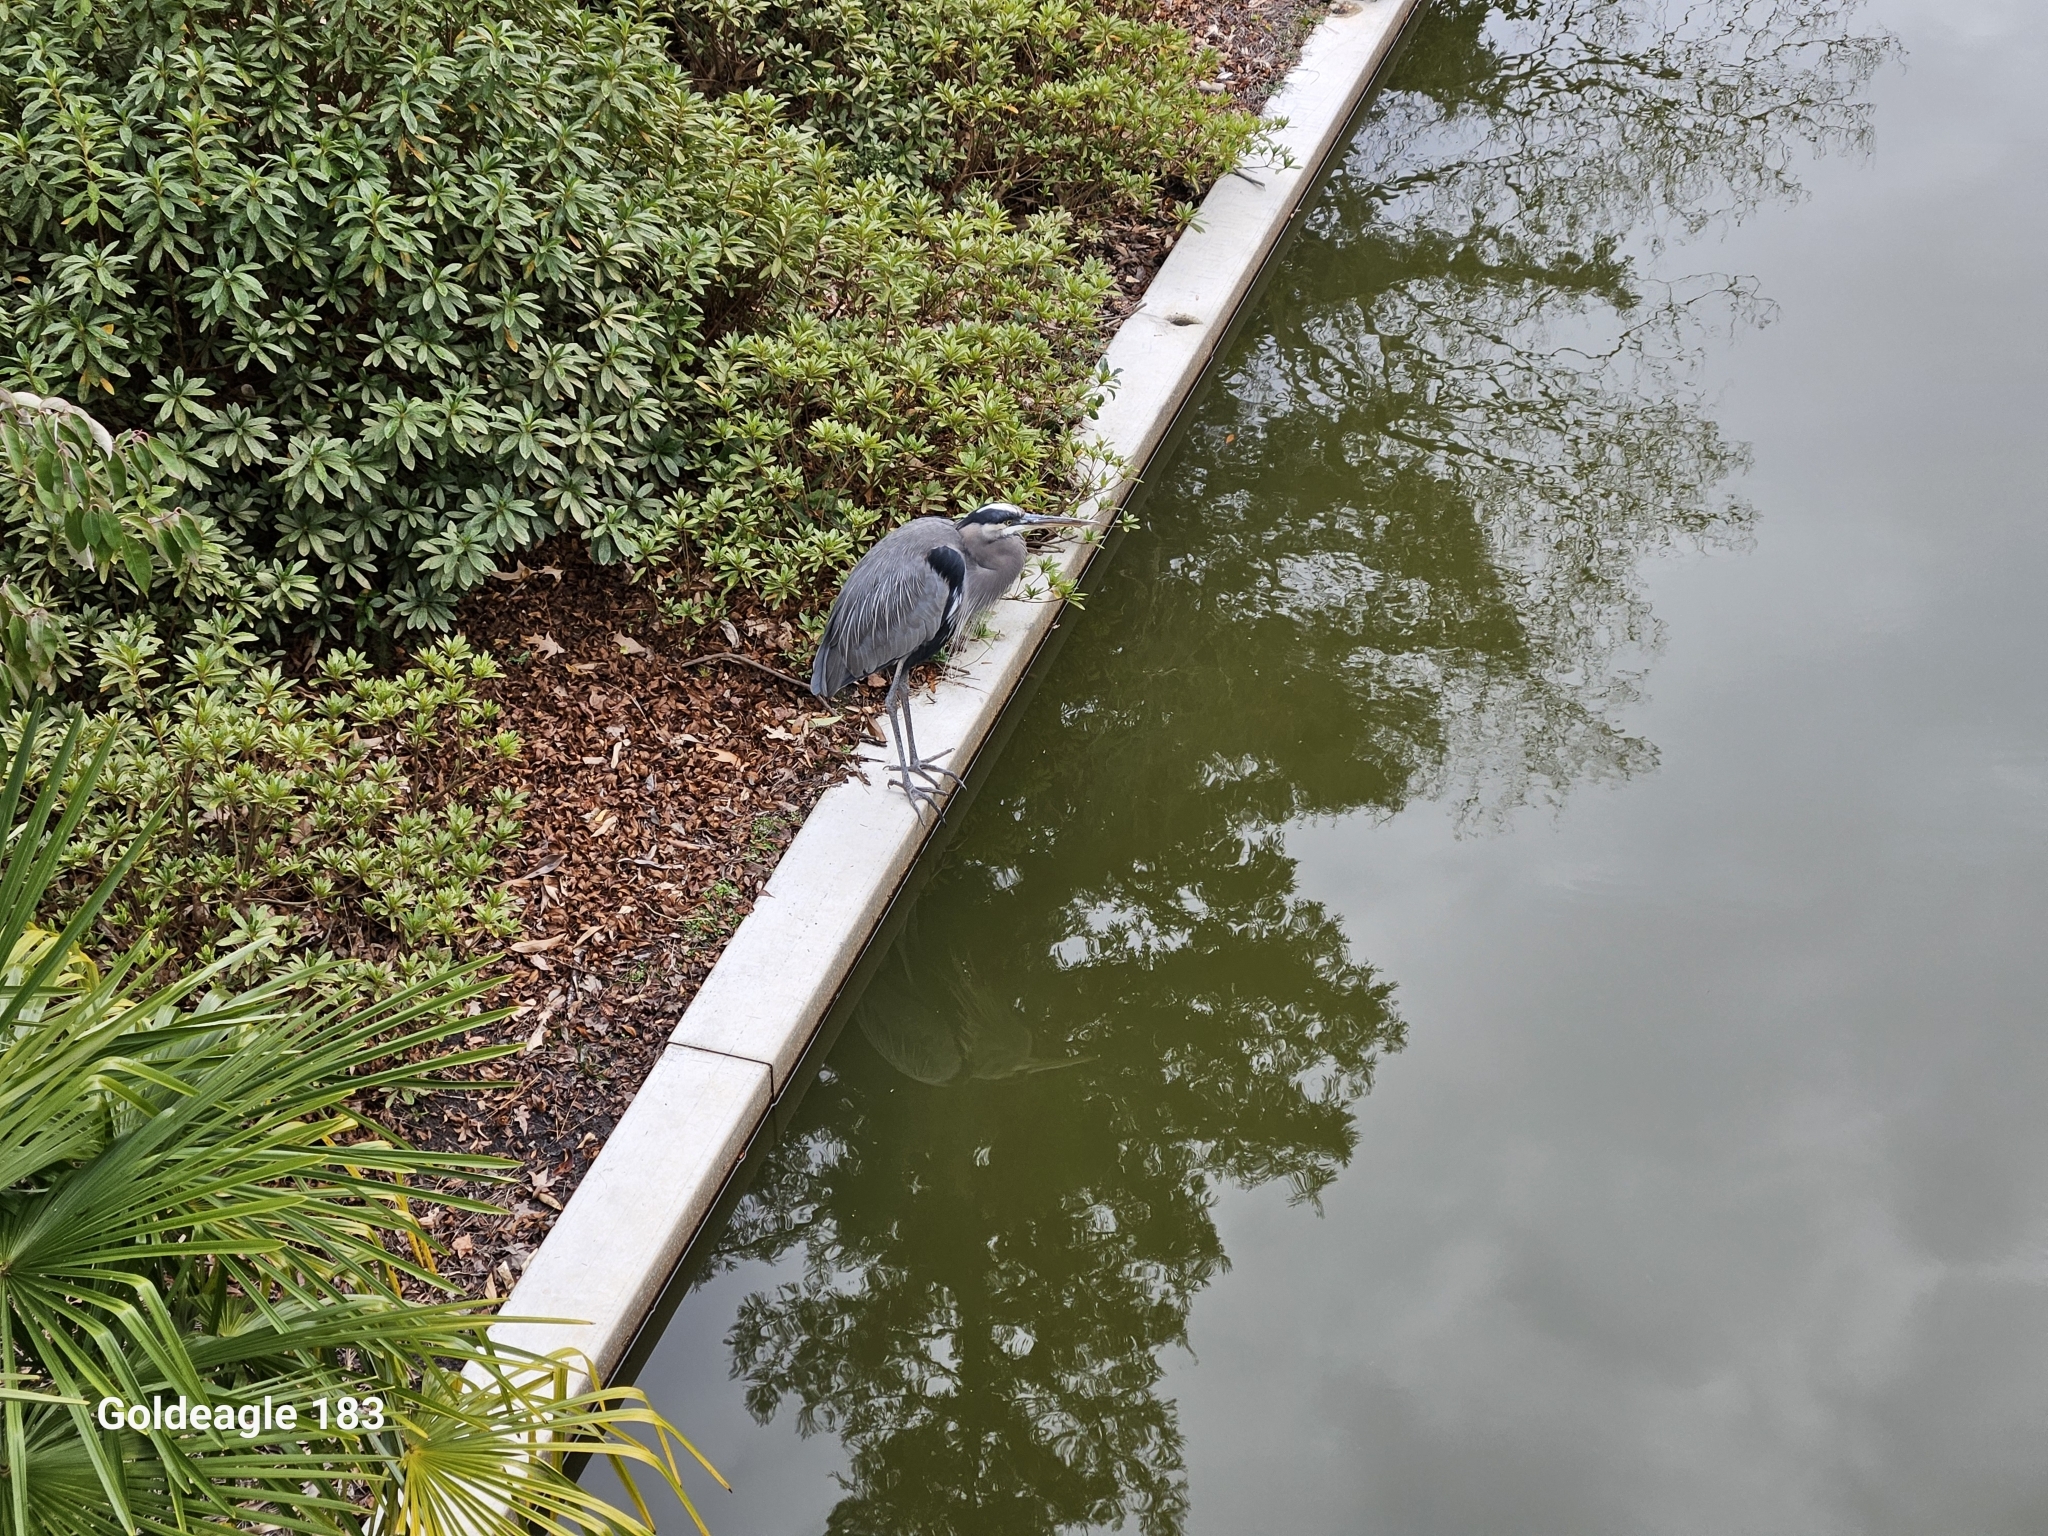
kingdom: Animalia
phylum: Chordata
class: Aves
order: Pelecaniformes
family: Ardeidae
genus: Ardea
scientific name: Ardea herodias
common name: Great blue heron
